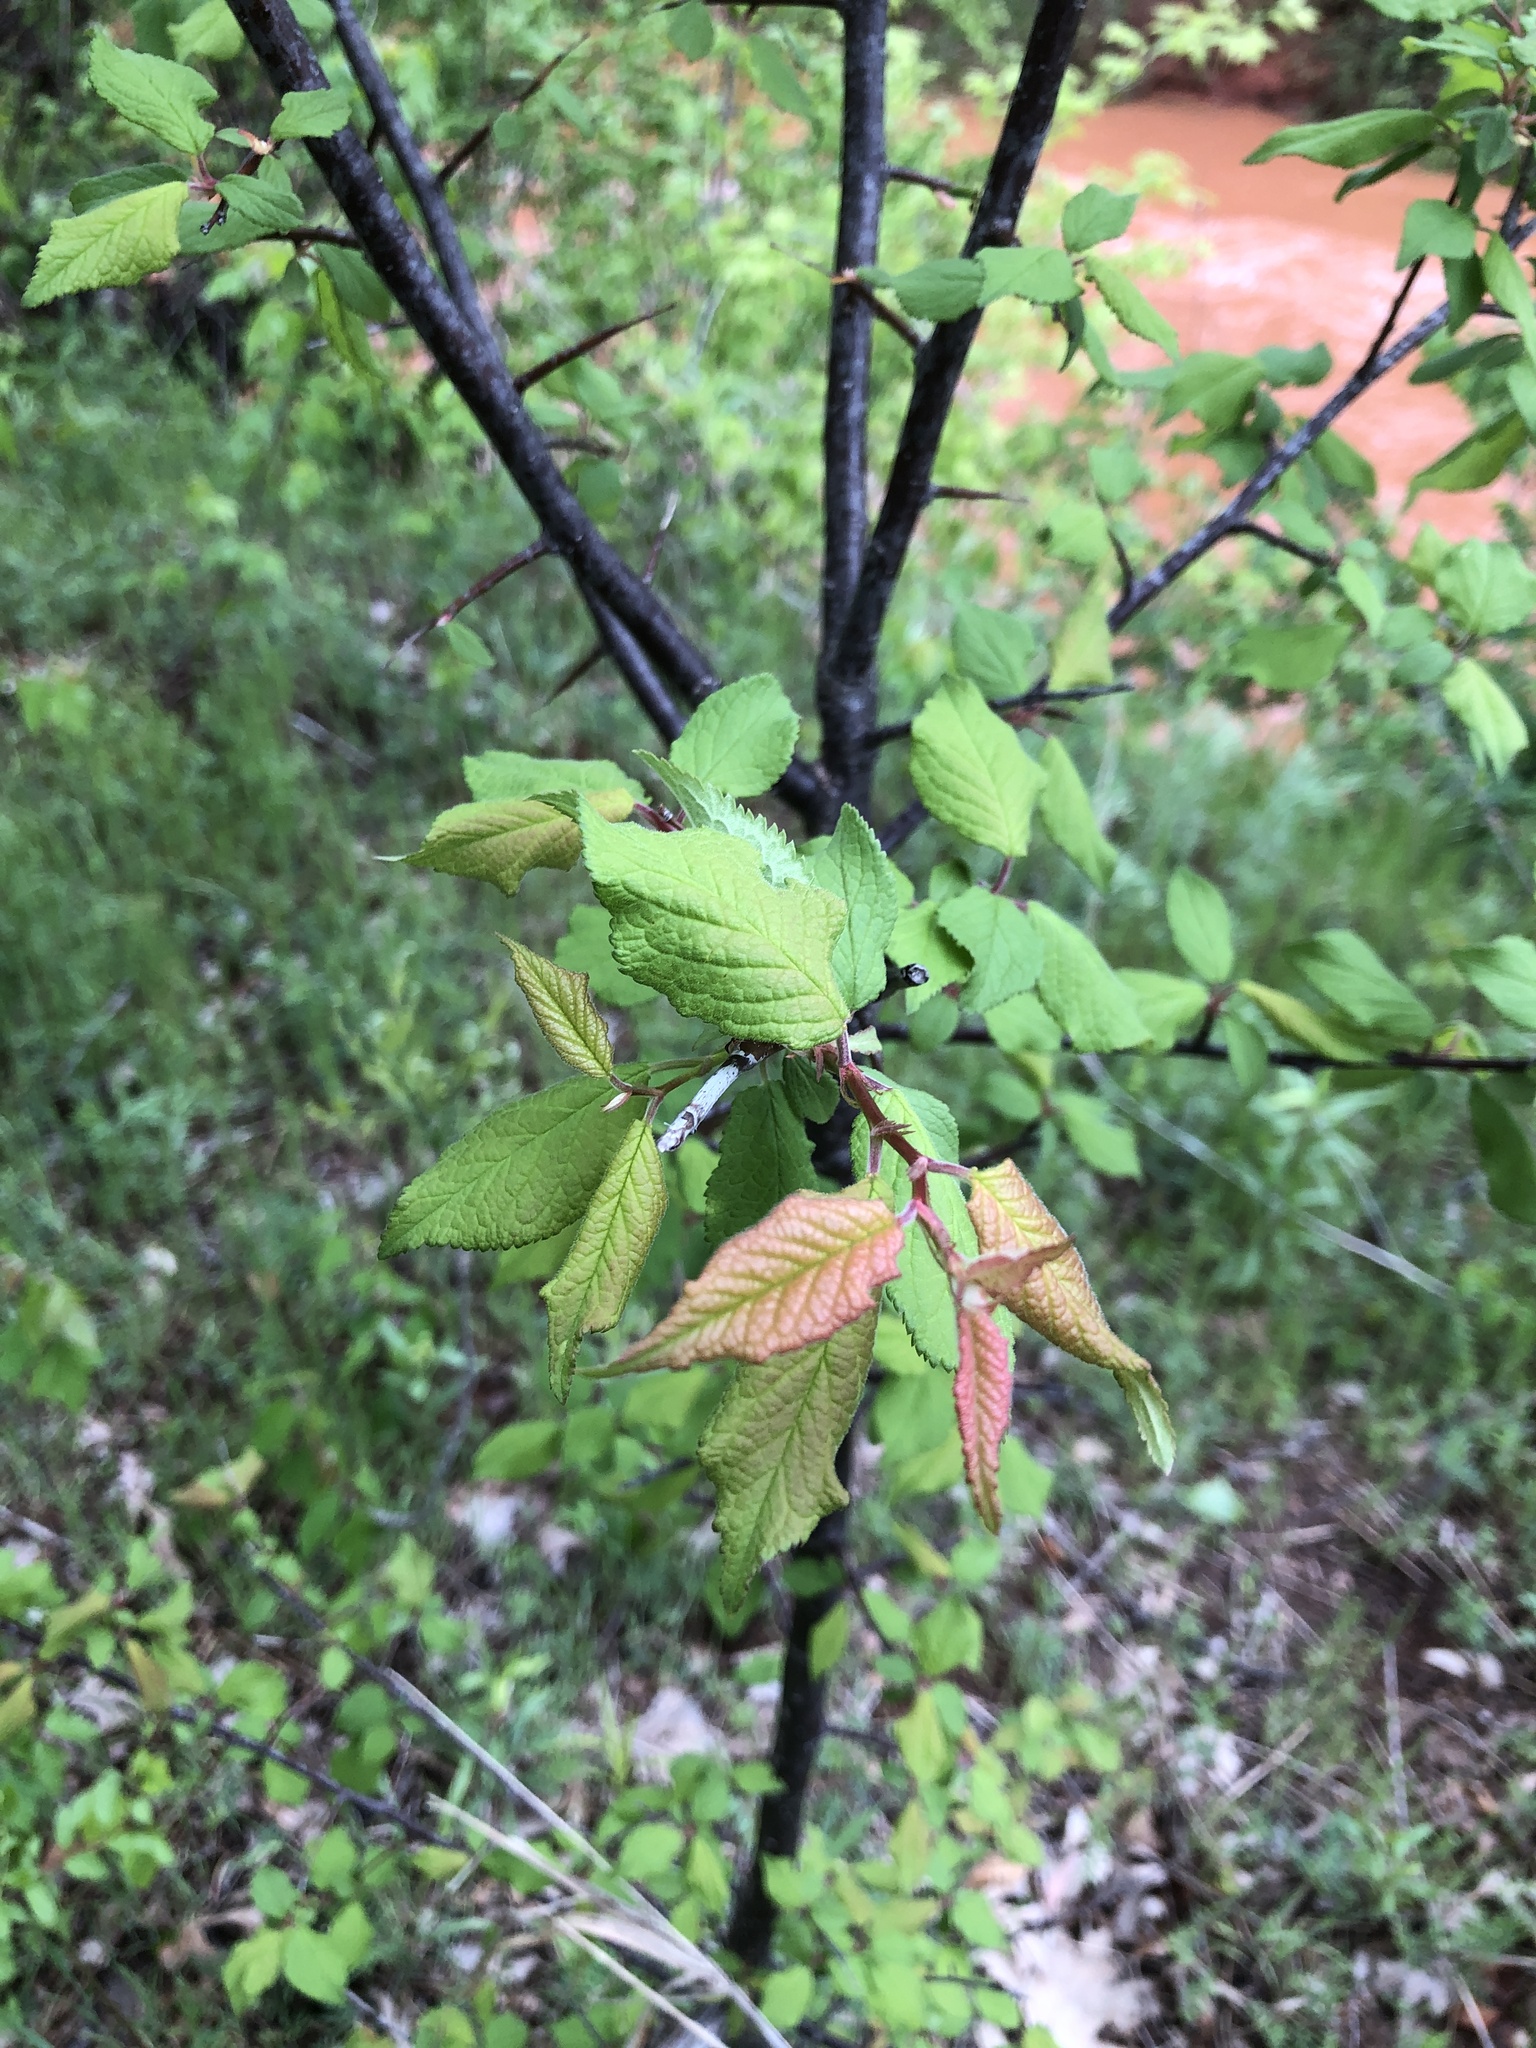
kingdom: Plantae
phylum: Tracheophyta
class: Magnoliopsida
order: Rosales
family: Rosaceae
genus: Prunus
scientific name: Prunus mexicana
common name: Mexican plum
